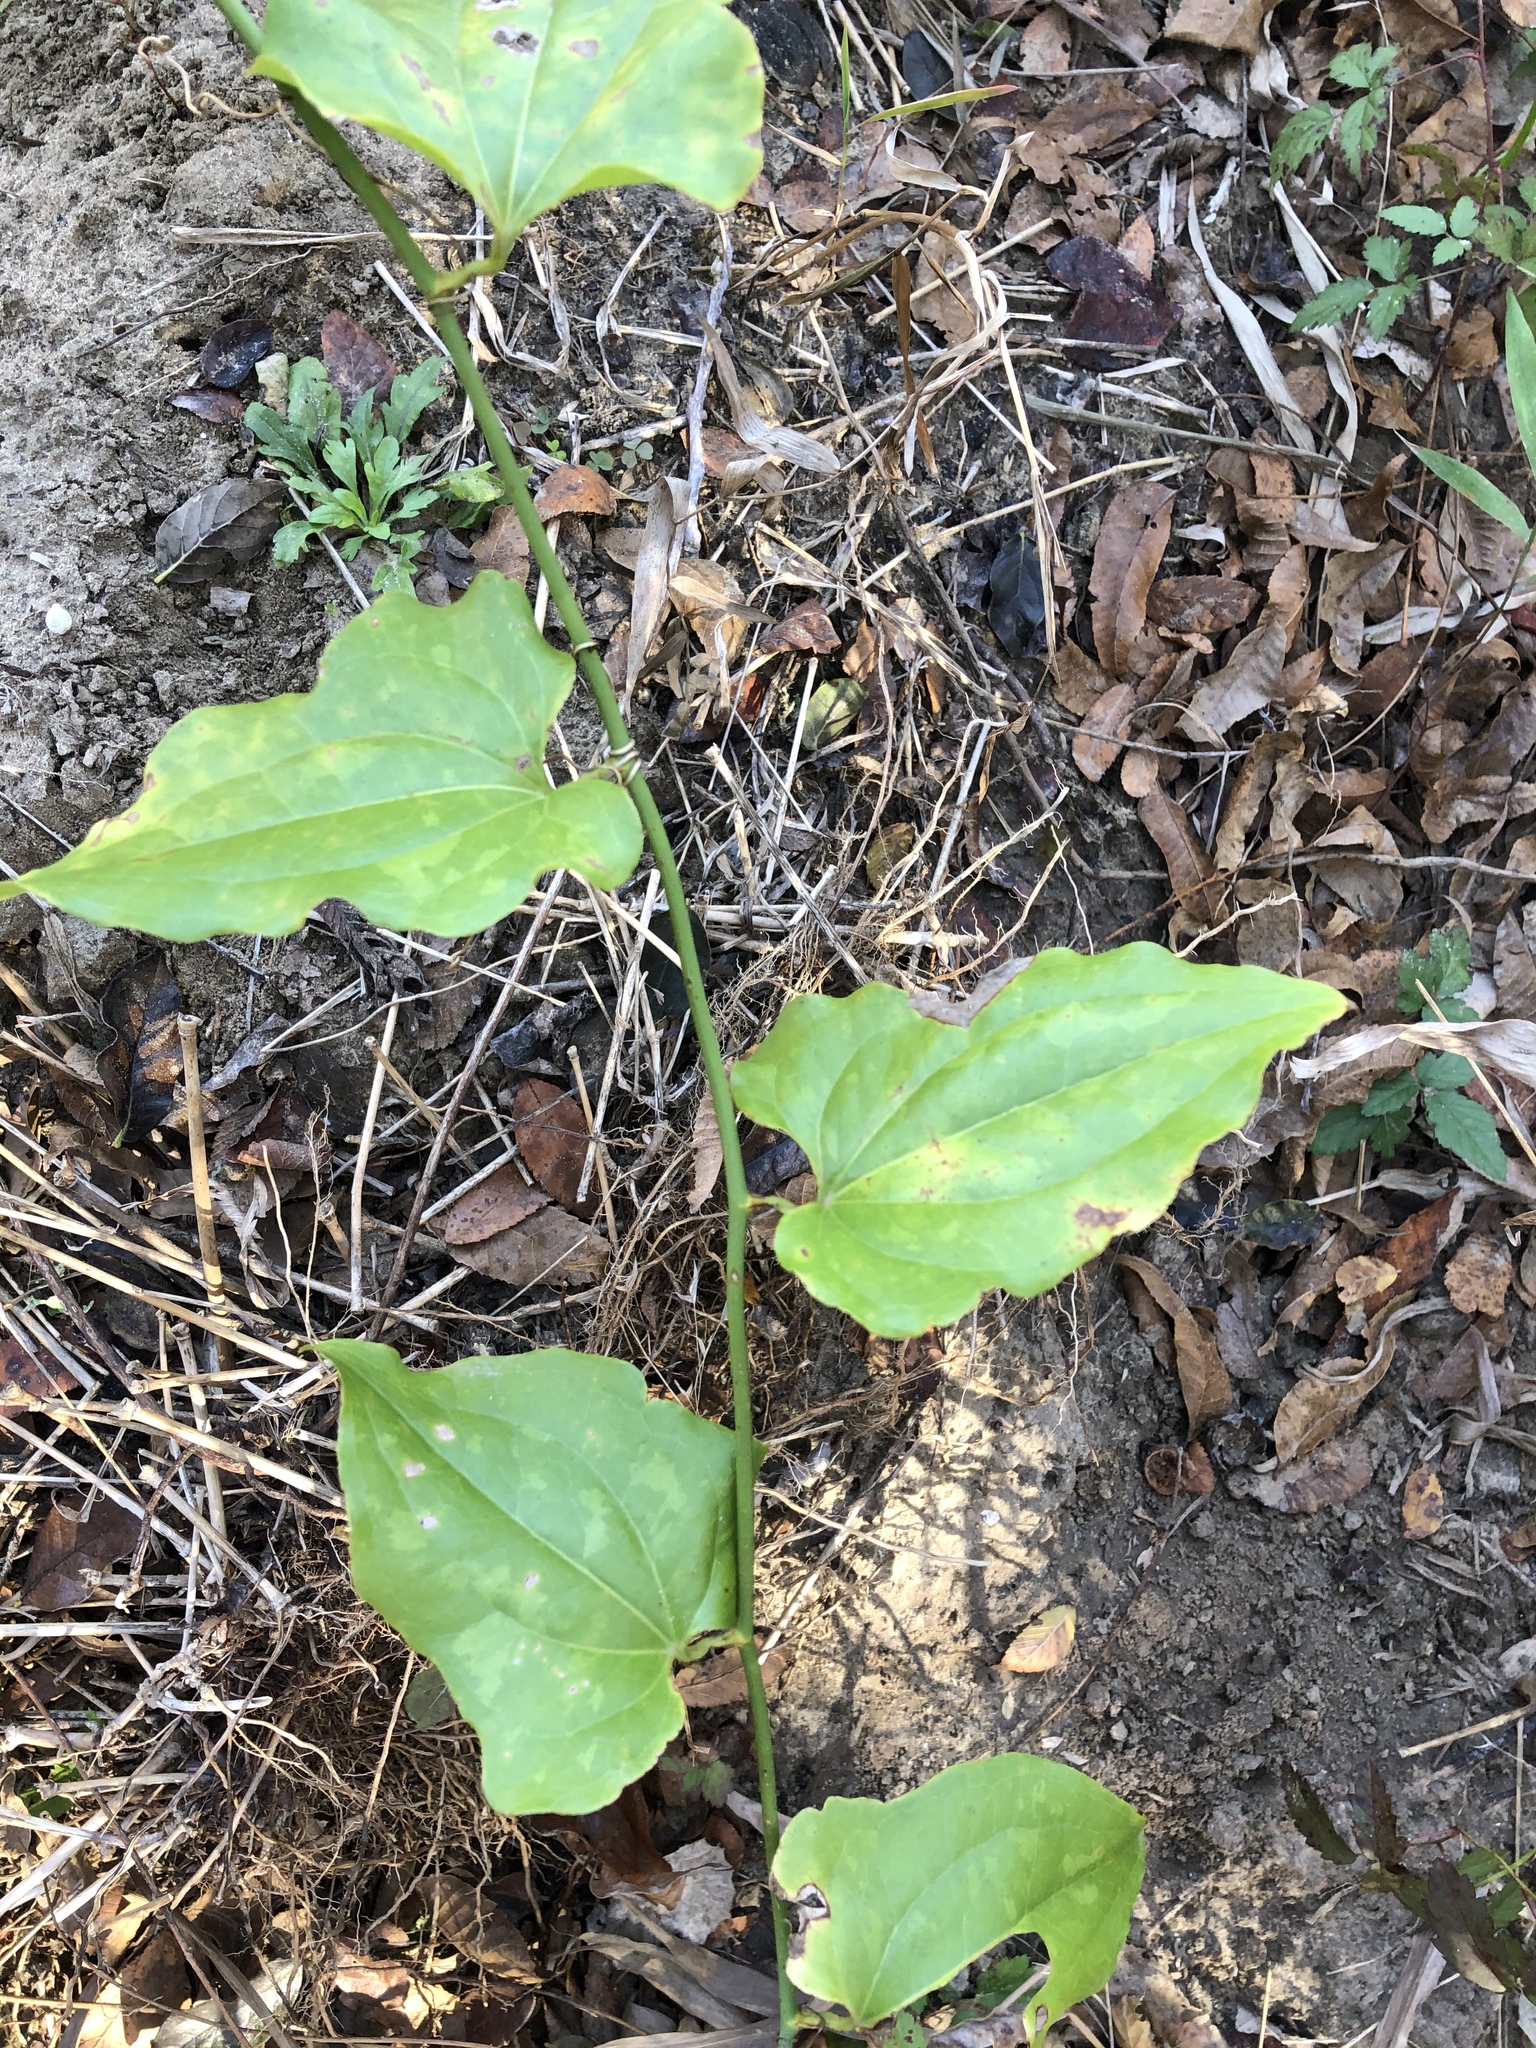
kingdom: Plantae
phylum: Tracheophyta
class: Liliopsida
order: Liliales
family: Smilacaceae
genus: Smilax
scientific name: Smilax tamnoides
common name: Hellfetter
